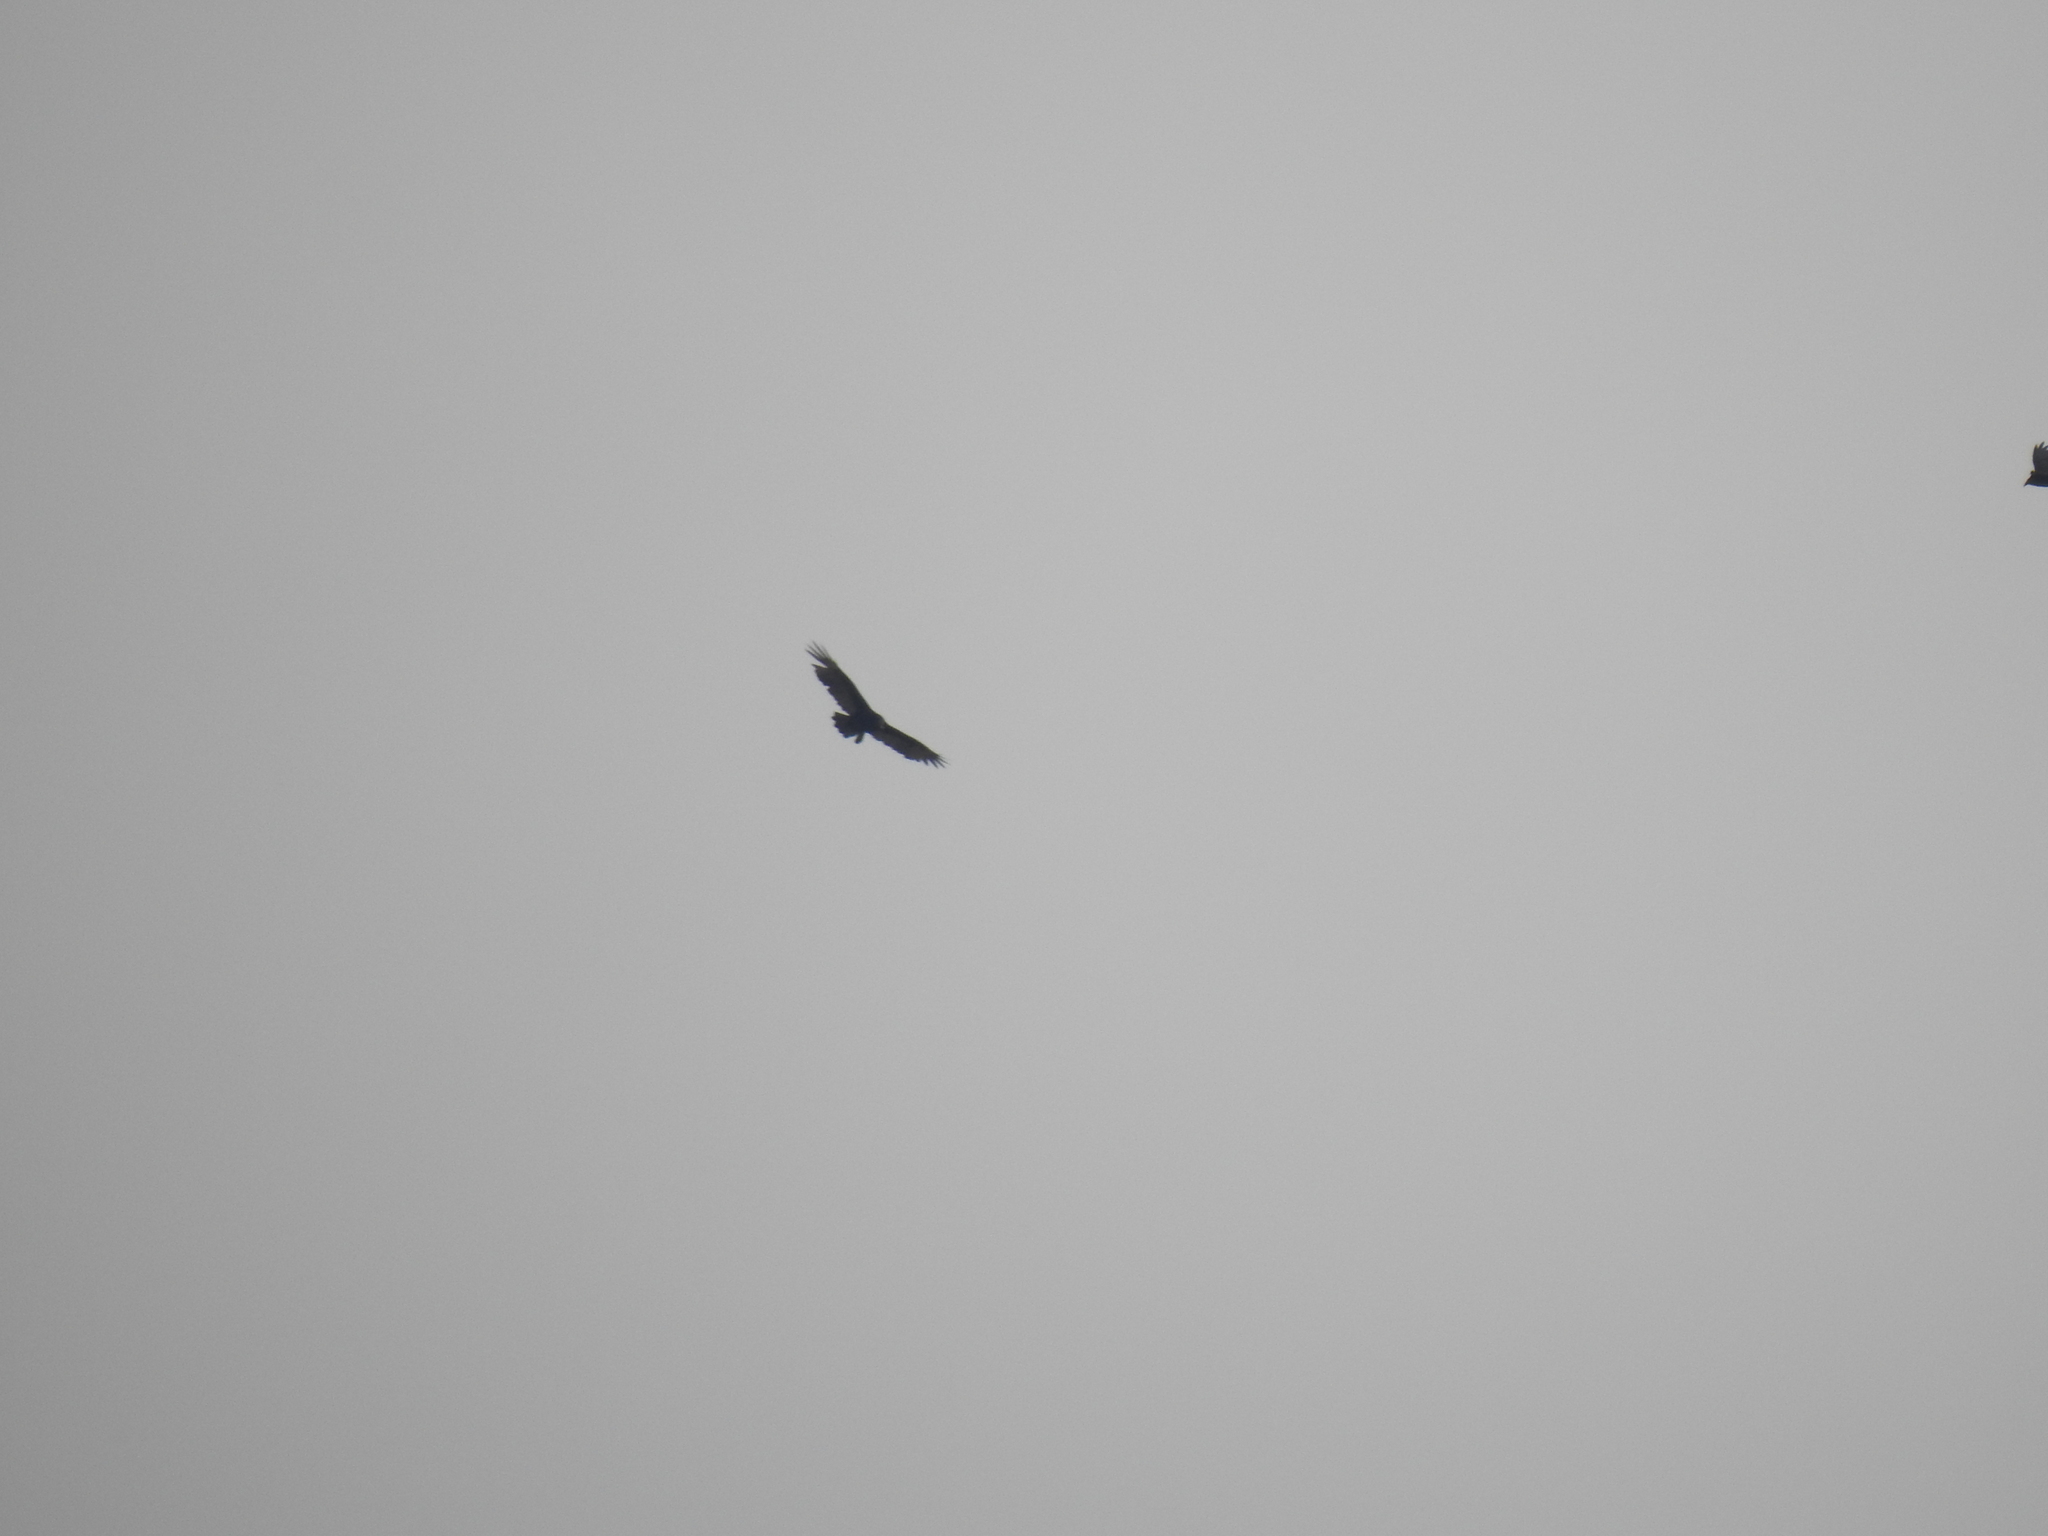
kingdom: Animalia
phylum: Chordata
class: Aves
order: Accipitriformes
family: Cathartidae
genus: Cathartes
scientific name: Cathartes aura
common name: Turkey vulture
